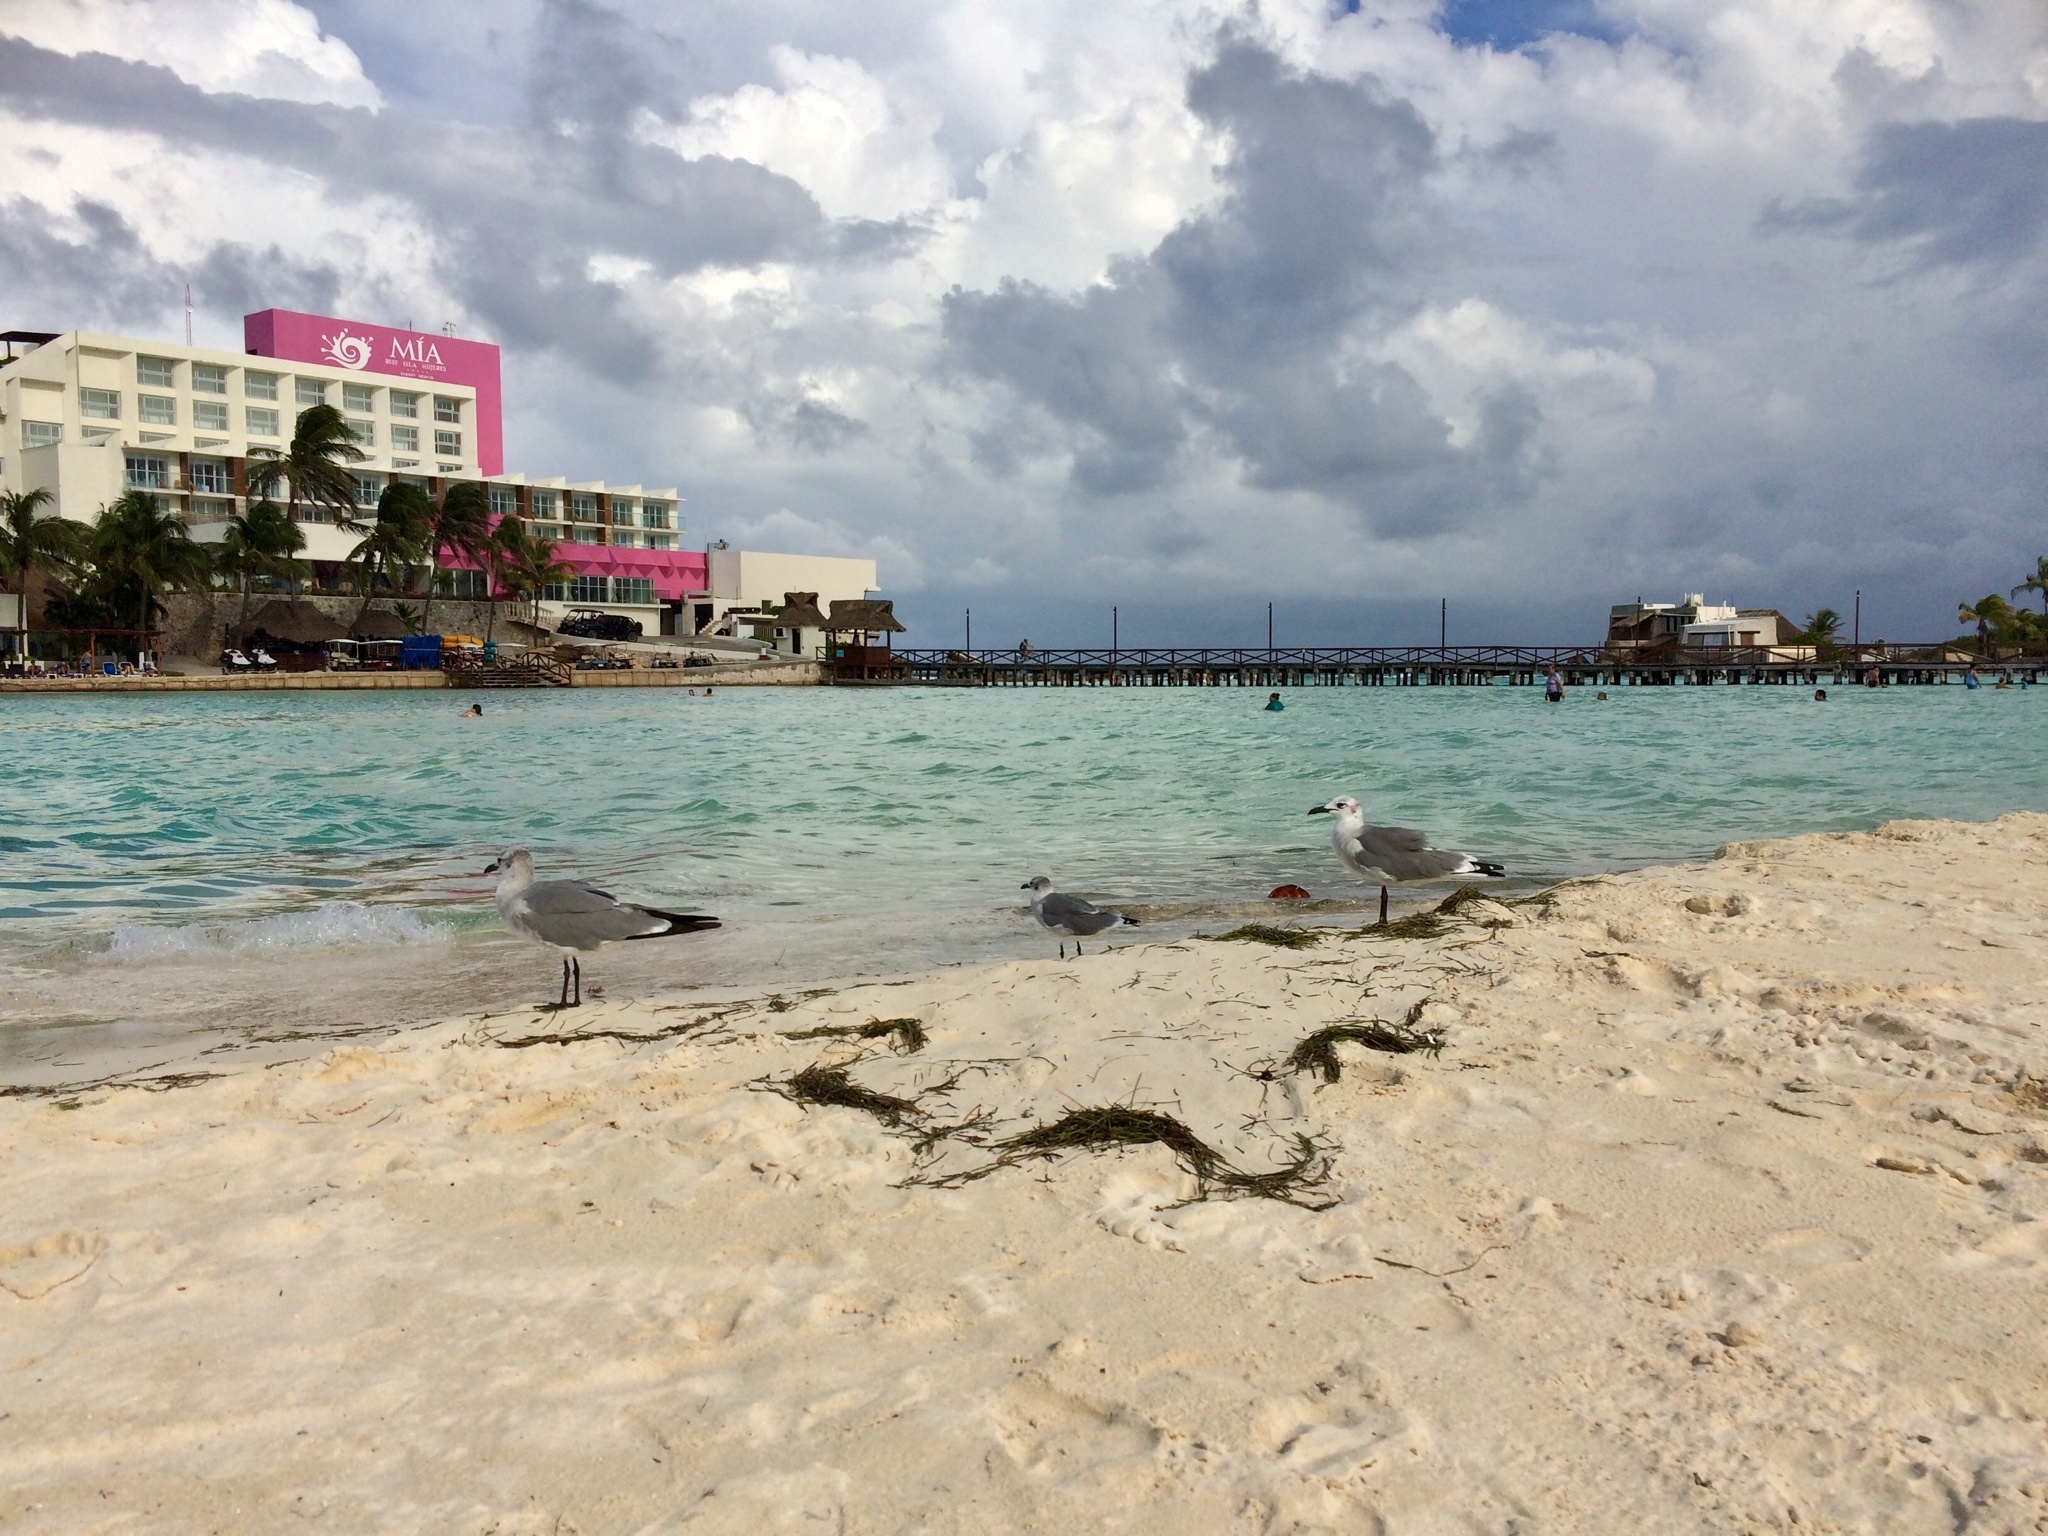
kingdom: Animalia
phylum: Chordata
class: Aves
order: Charadriiformes
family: Laridae
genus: Leucophaeus
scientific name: Leucophaeus atricilla
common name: Laughing gull
